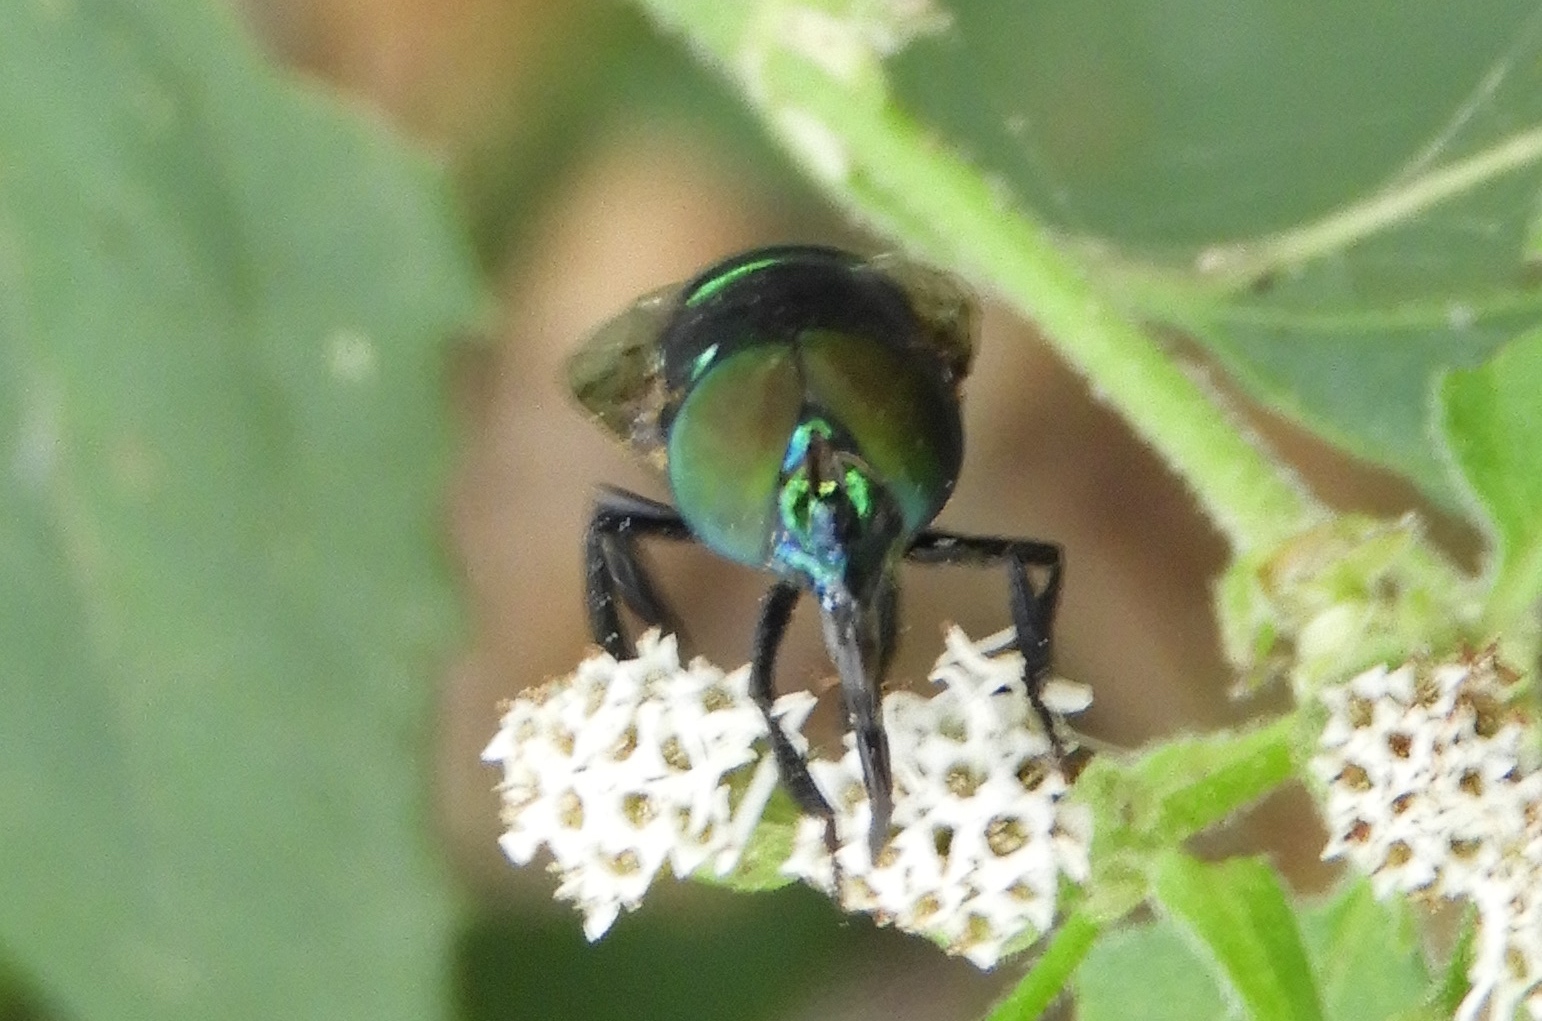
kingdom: Animalia
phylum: Arthropoda
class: Insecta
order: Diptera
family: Syrphidae
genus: Ornidia
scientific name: Ornidia obesa
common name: Syrphid fly
